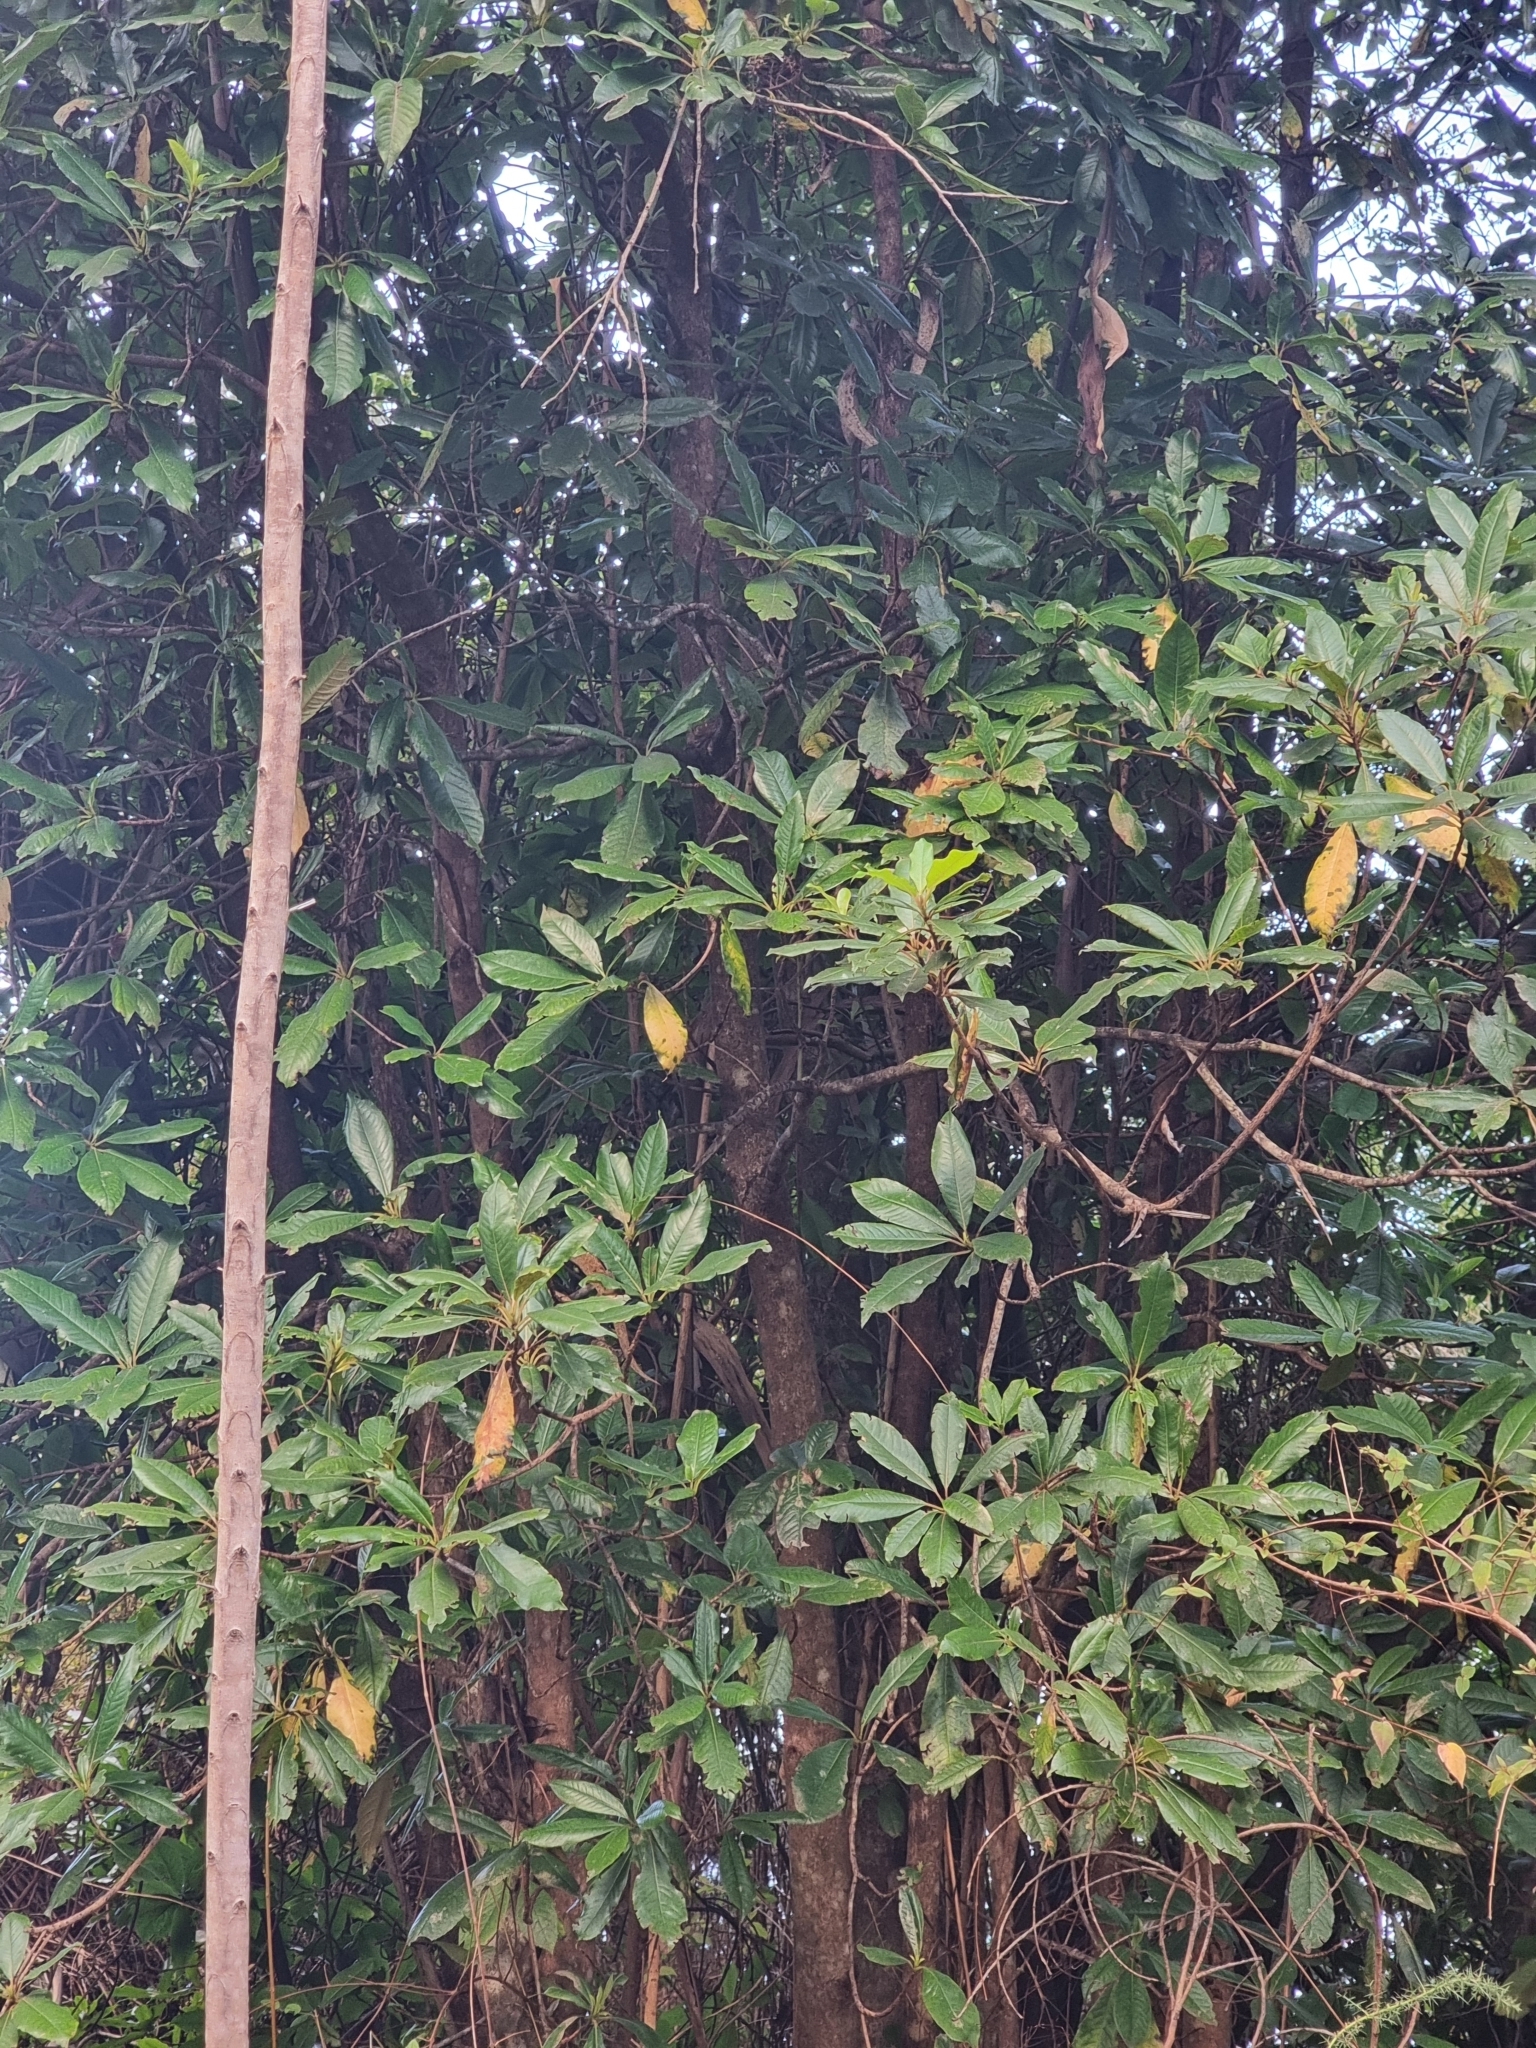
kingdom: Plantae
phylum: Tracheophyta
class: Magnoliopsida
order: Ericales
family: Clethraceae
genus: Clethra
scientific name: Clethra arborea
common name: Lily-of-the-valley-tree
